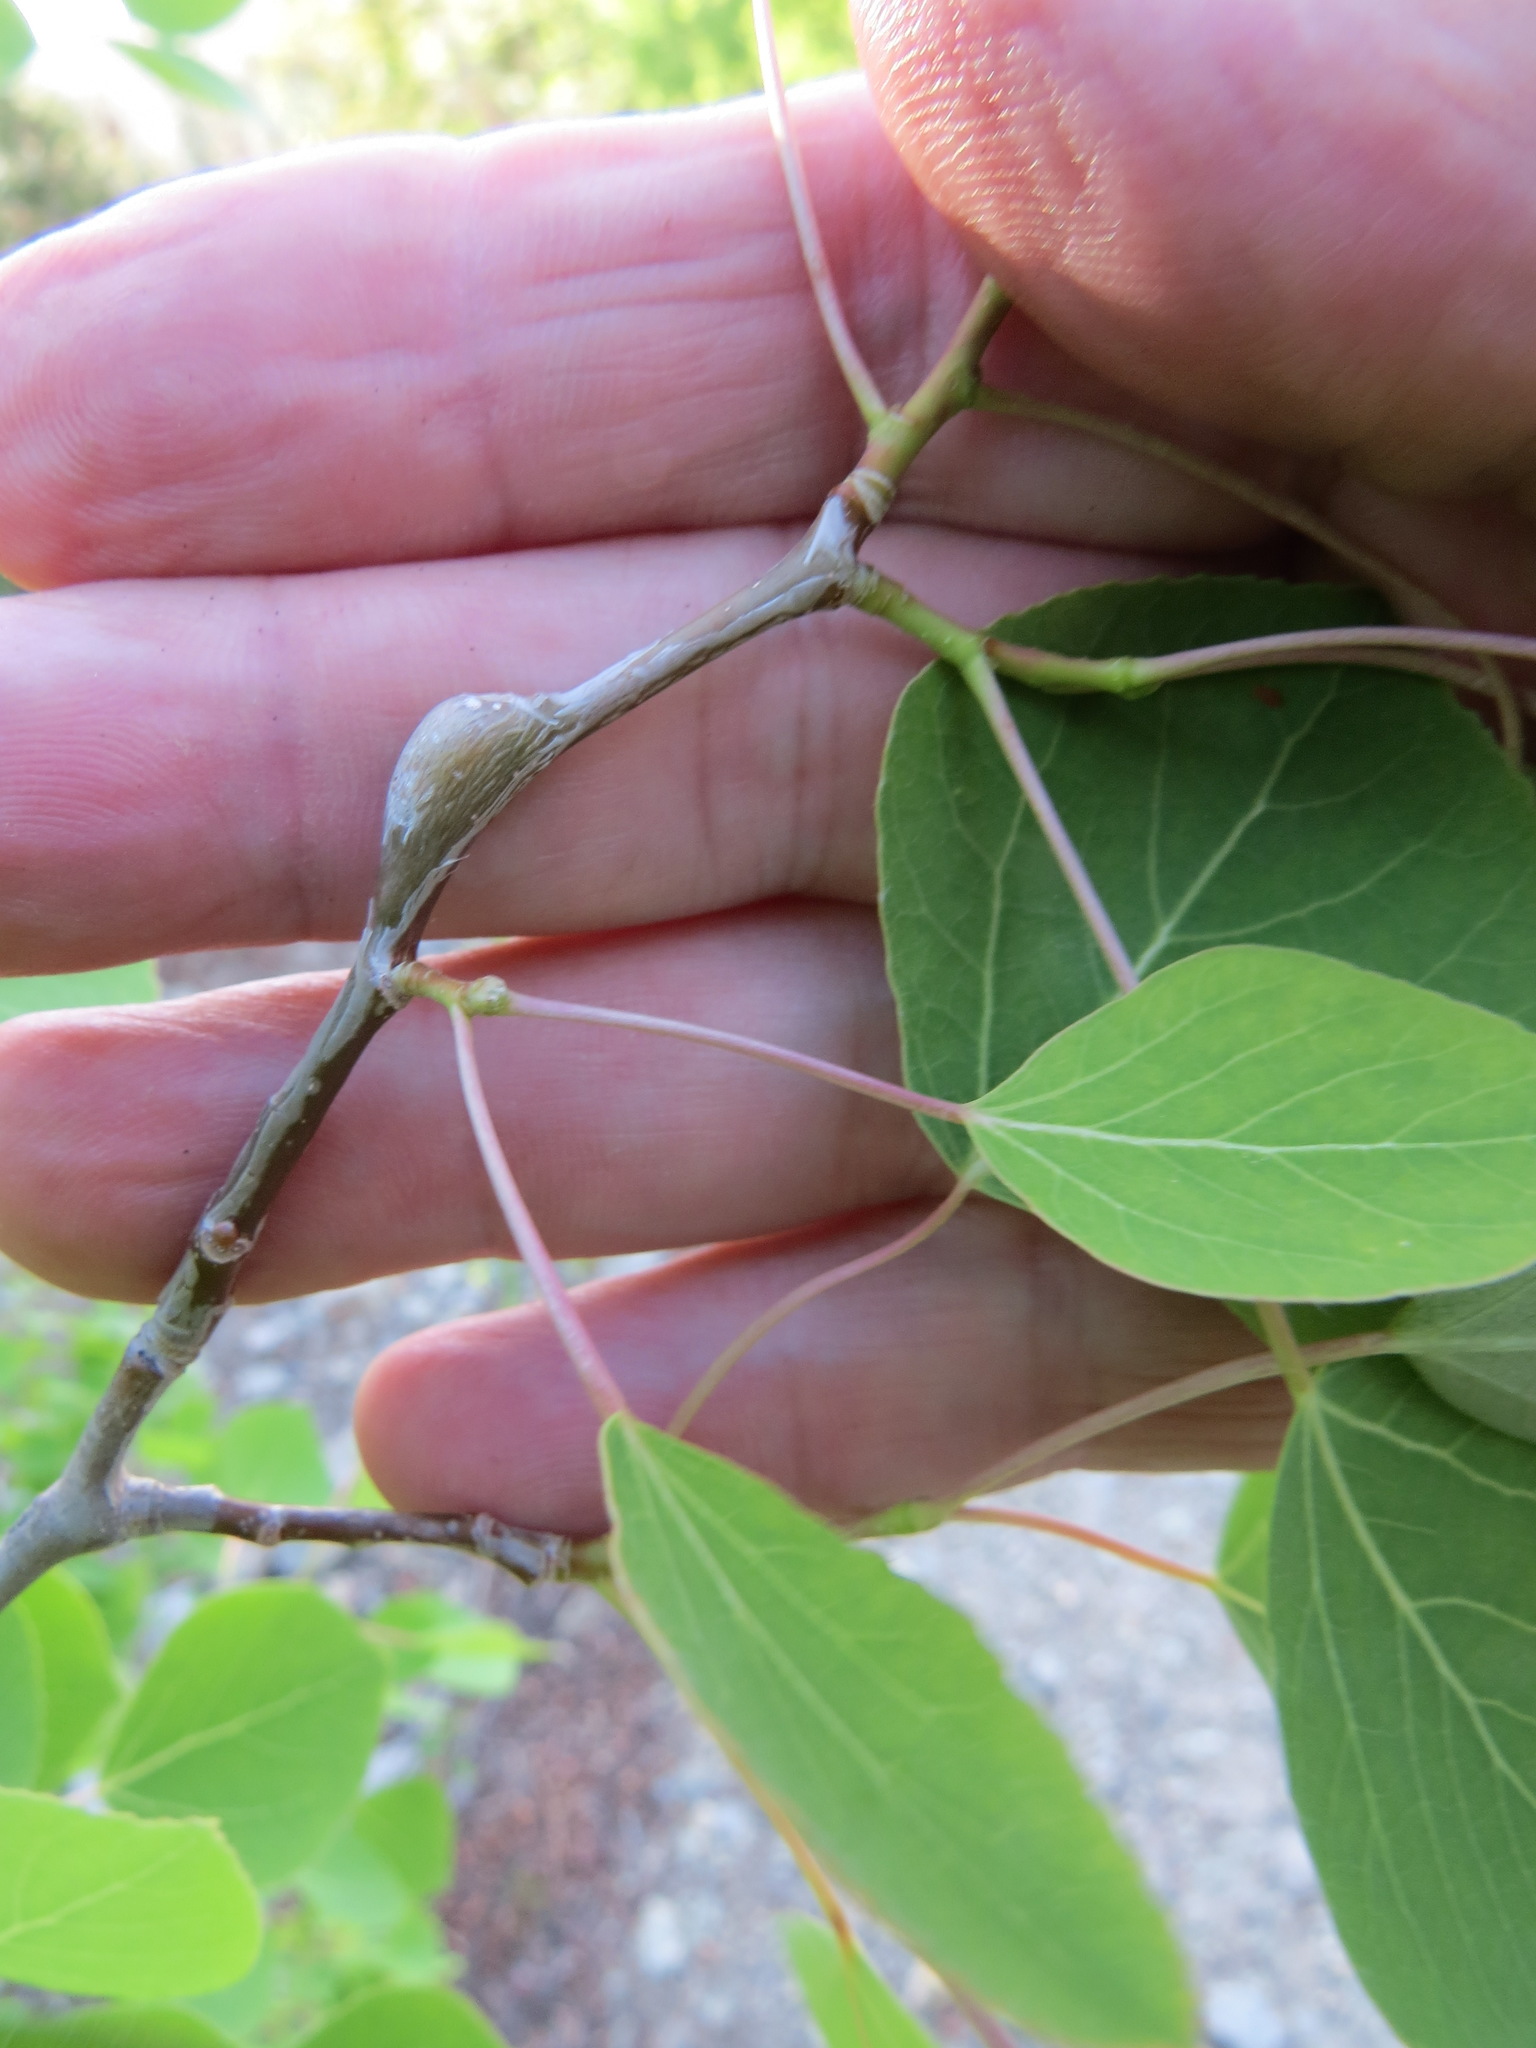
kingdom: Animalia
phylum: Arthropoda
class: Insecta
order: Diptera
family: Agromyzidae
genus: Euhexomyza
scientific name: Euhexomyza schineri
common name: Poplar twiggall fly
